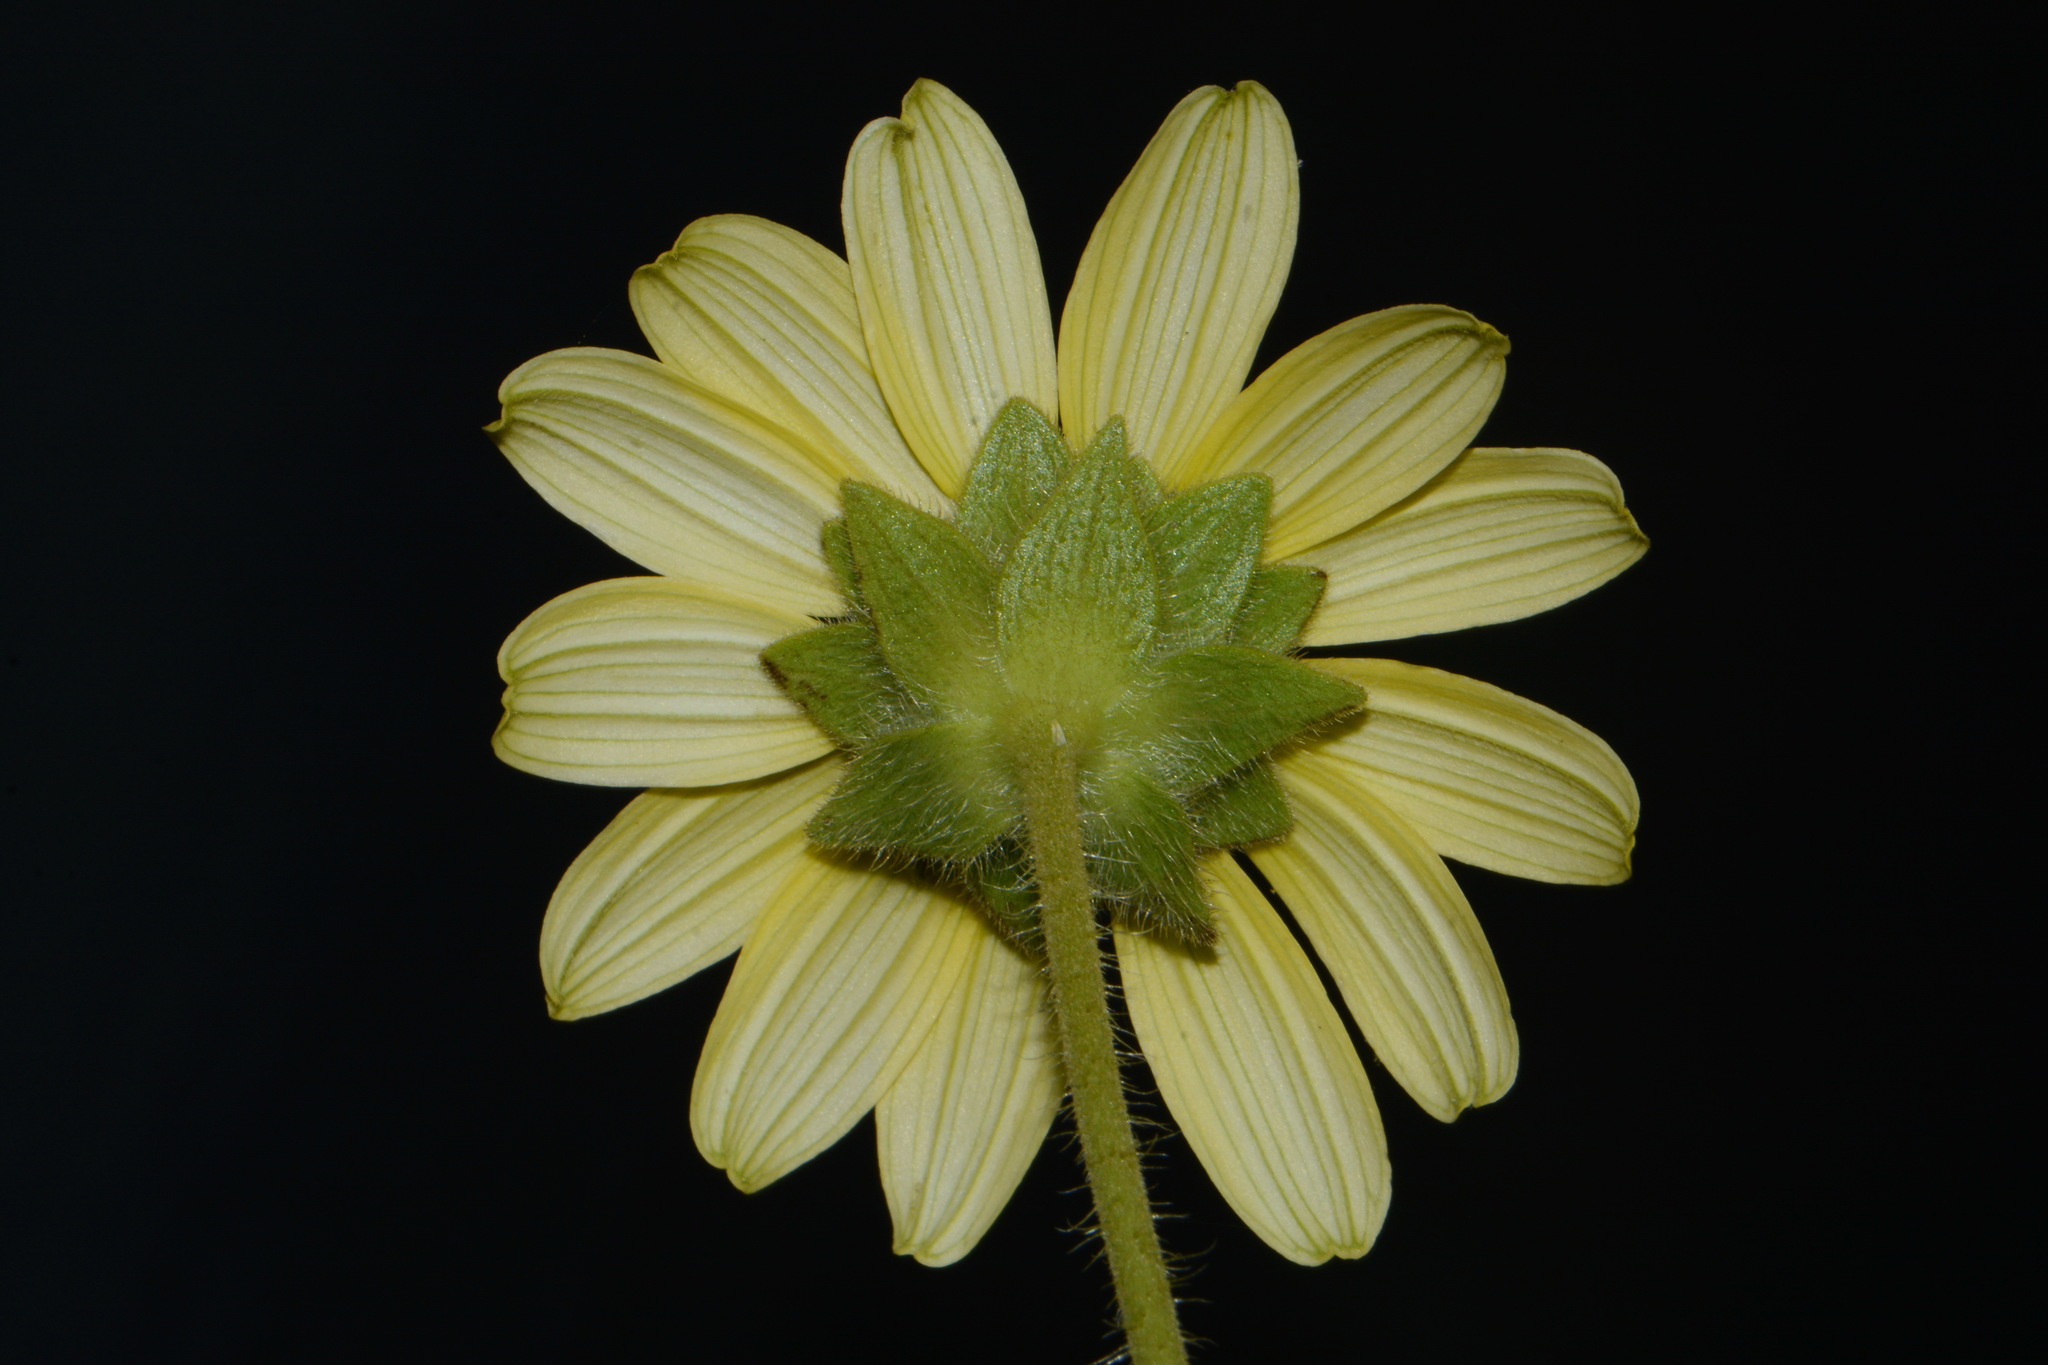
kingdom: Plantae
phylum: Tracheophyta
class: Magnoliopsida
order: Asterales
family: Asteraceae
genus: Silphium
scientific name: Silphium mohrii
